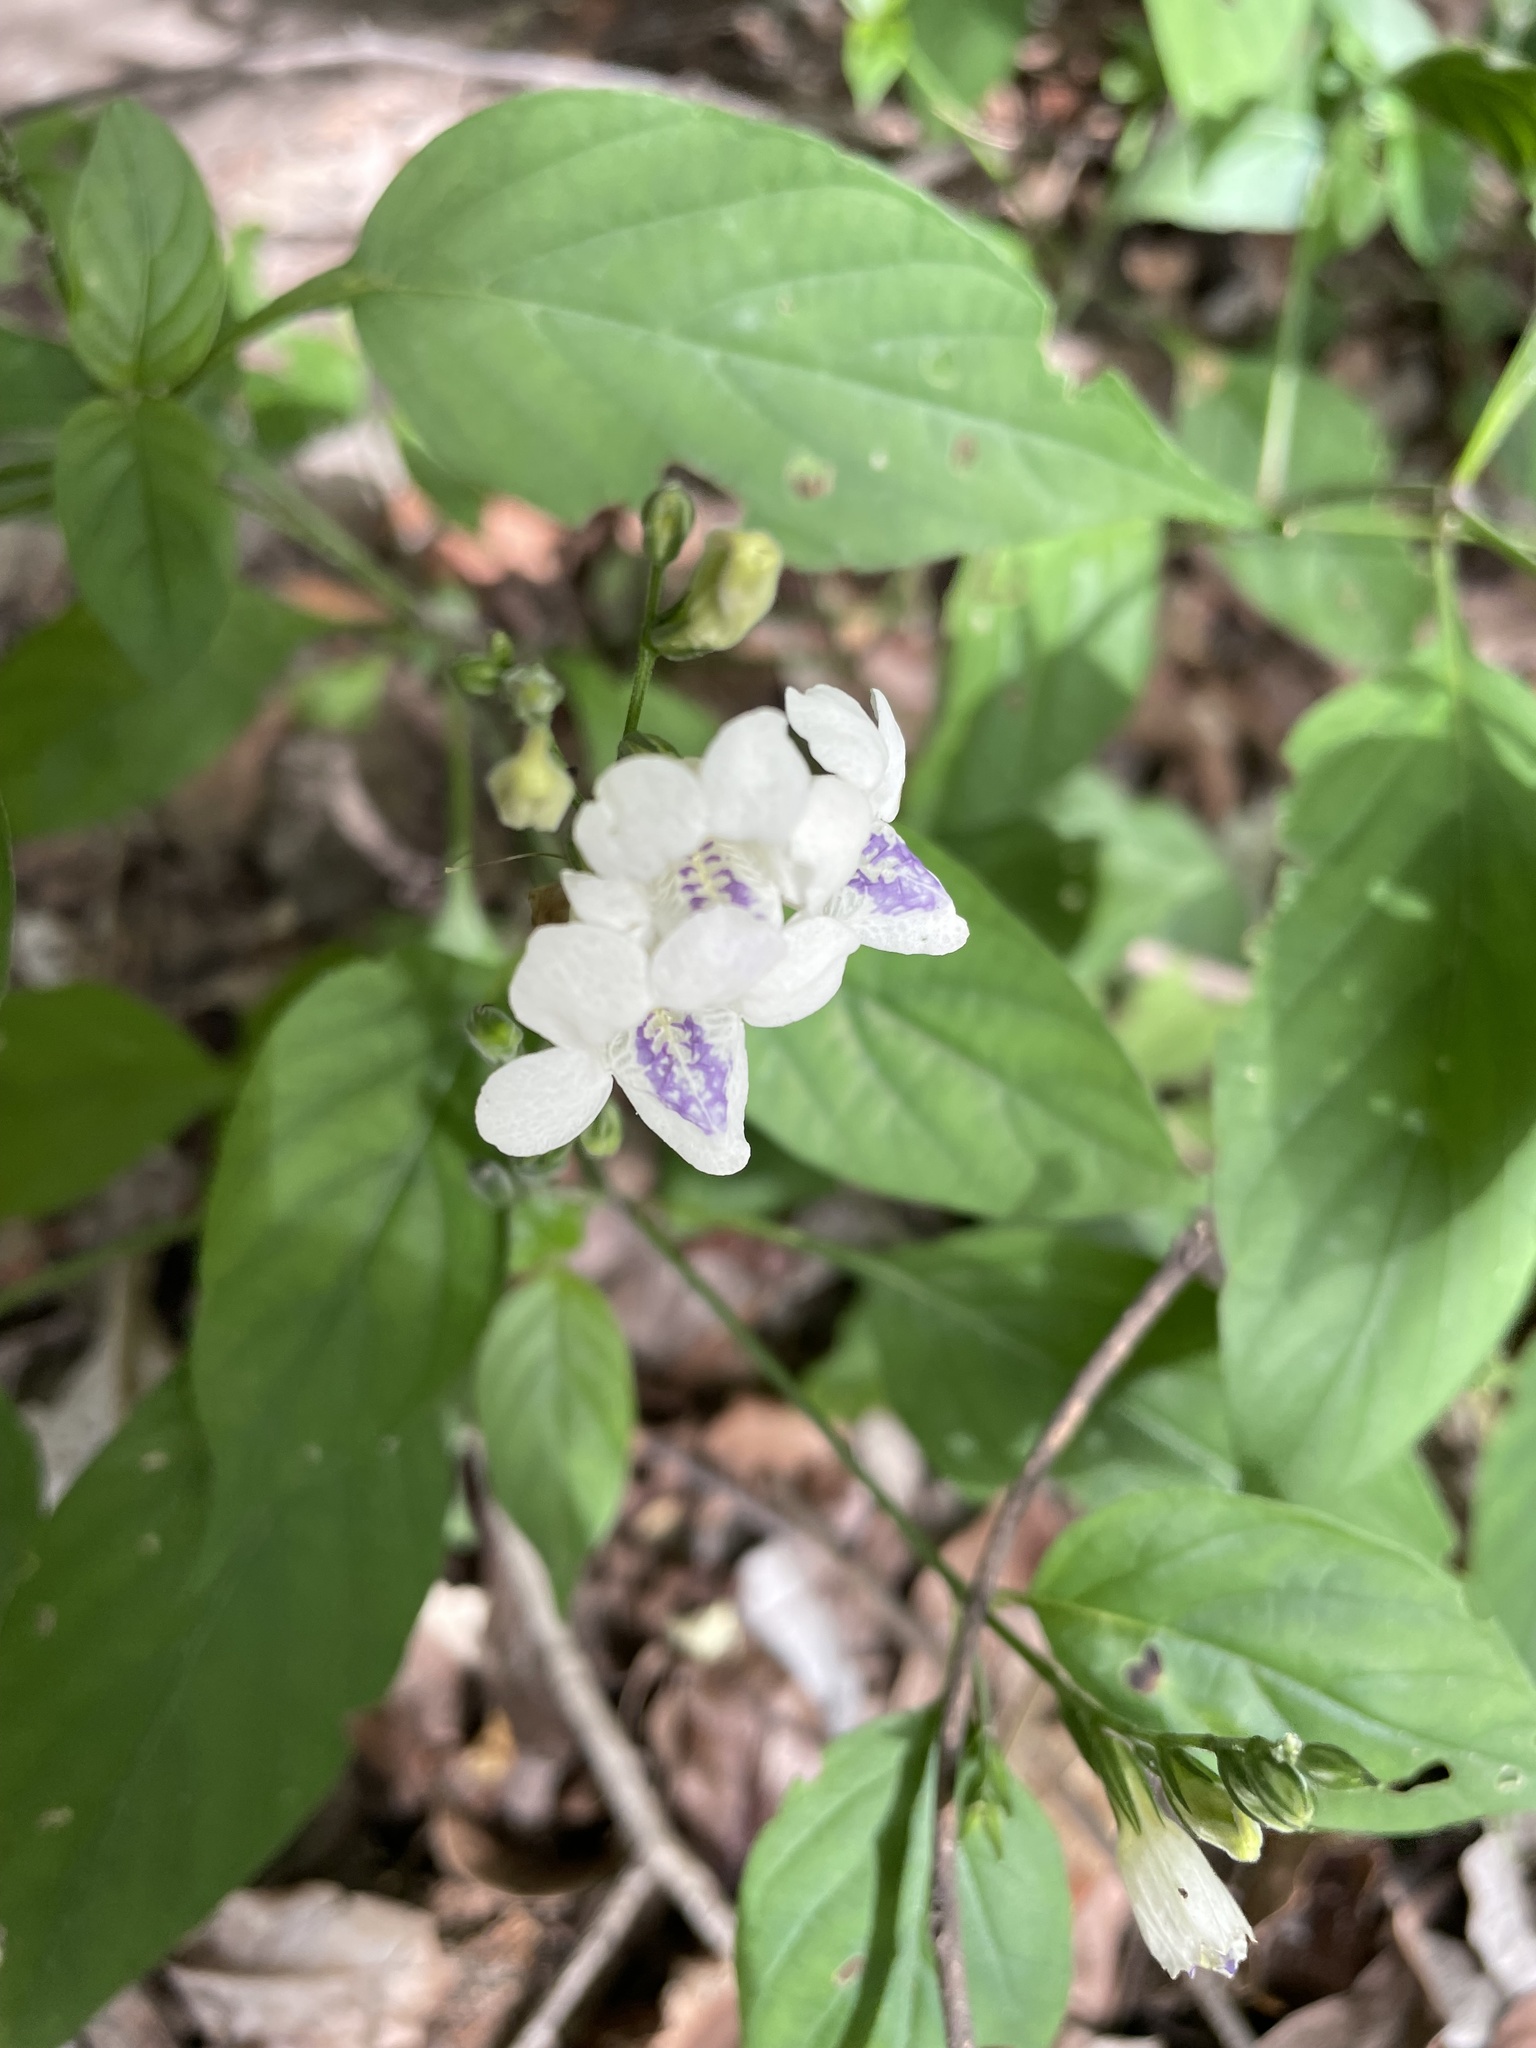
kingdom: Plantae
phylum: Tracheophyta
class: Magnoliopsida
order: Lamiales
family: Acanthaceae
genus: Asystasia
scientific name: Asystasia intrusa
